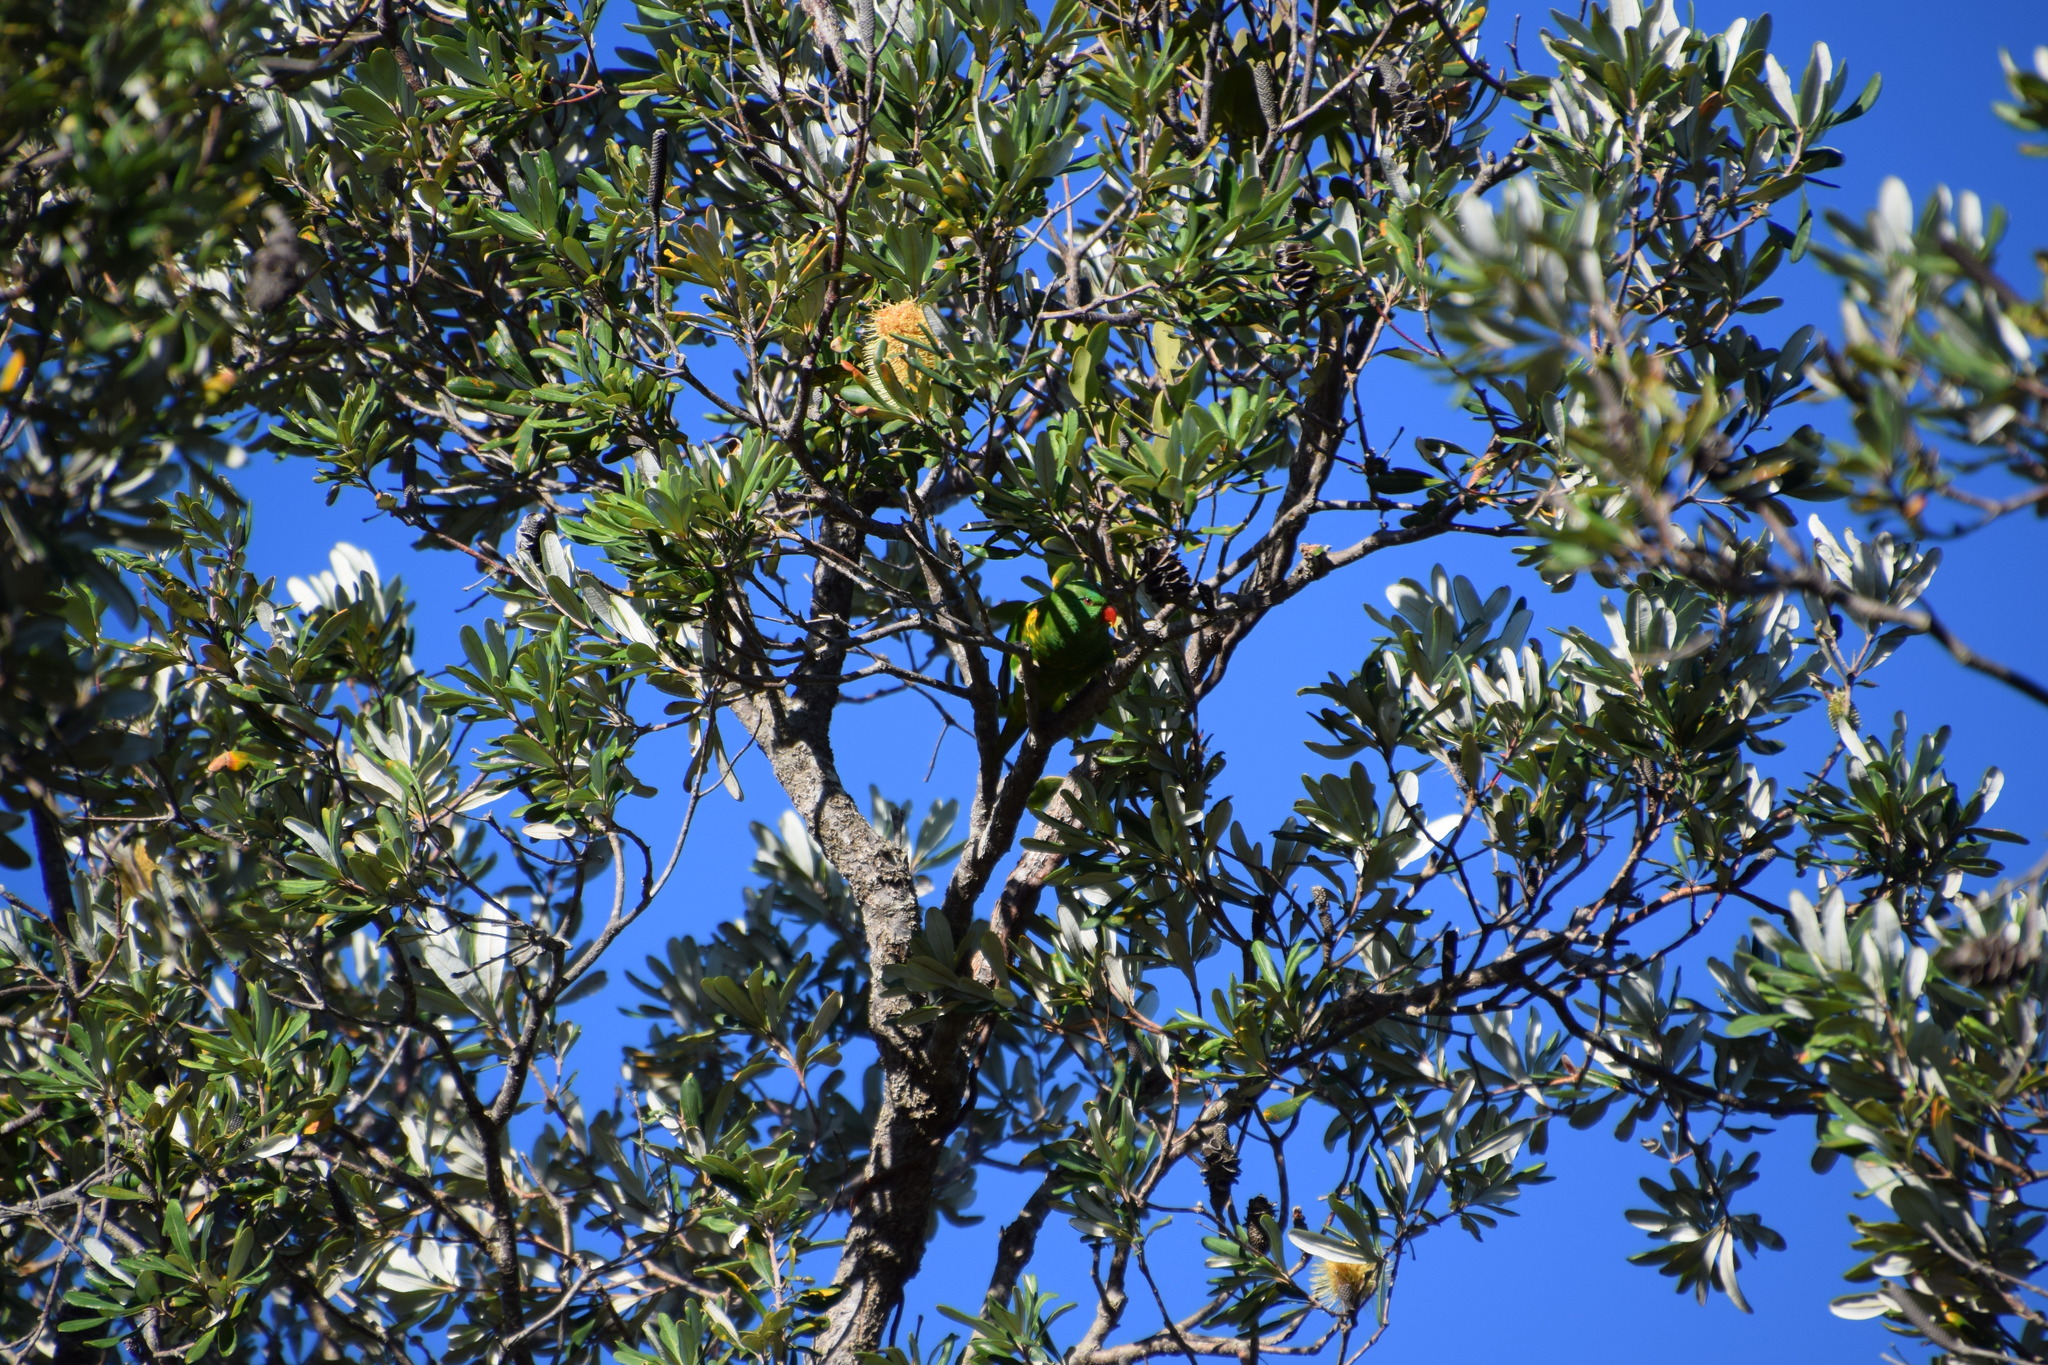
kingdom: Animalia
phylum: Chordata
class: Aves
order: Psittaciformes
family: Psittacidae
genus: Trichoglossus
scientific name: Trichoglossus chlorolepidotus
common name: Scaly-breasted lorikeet
